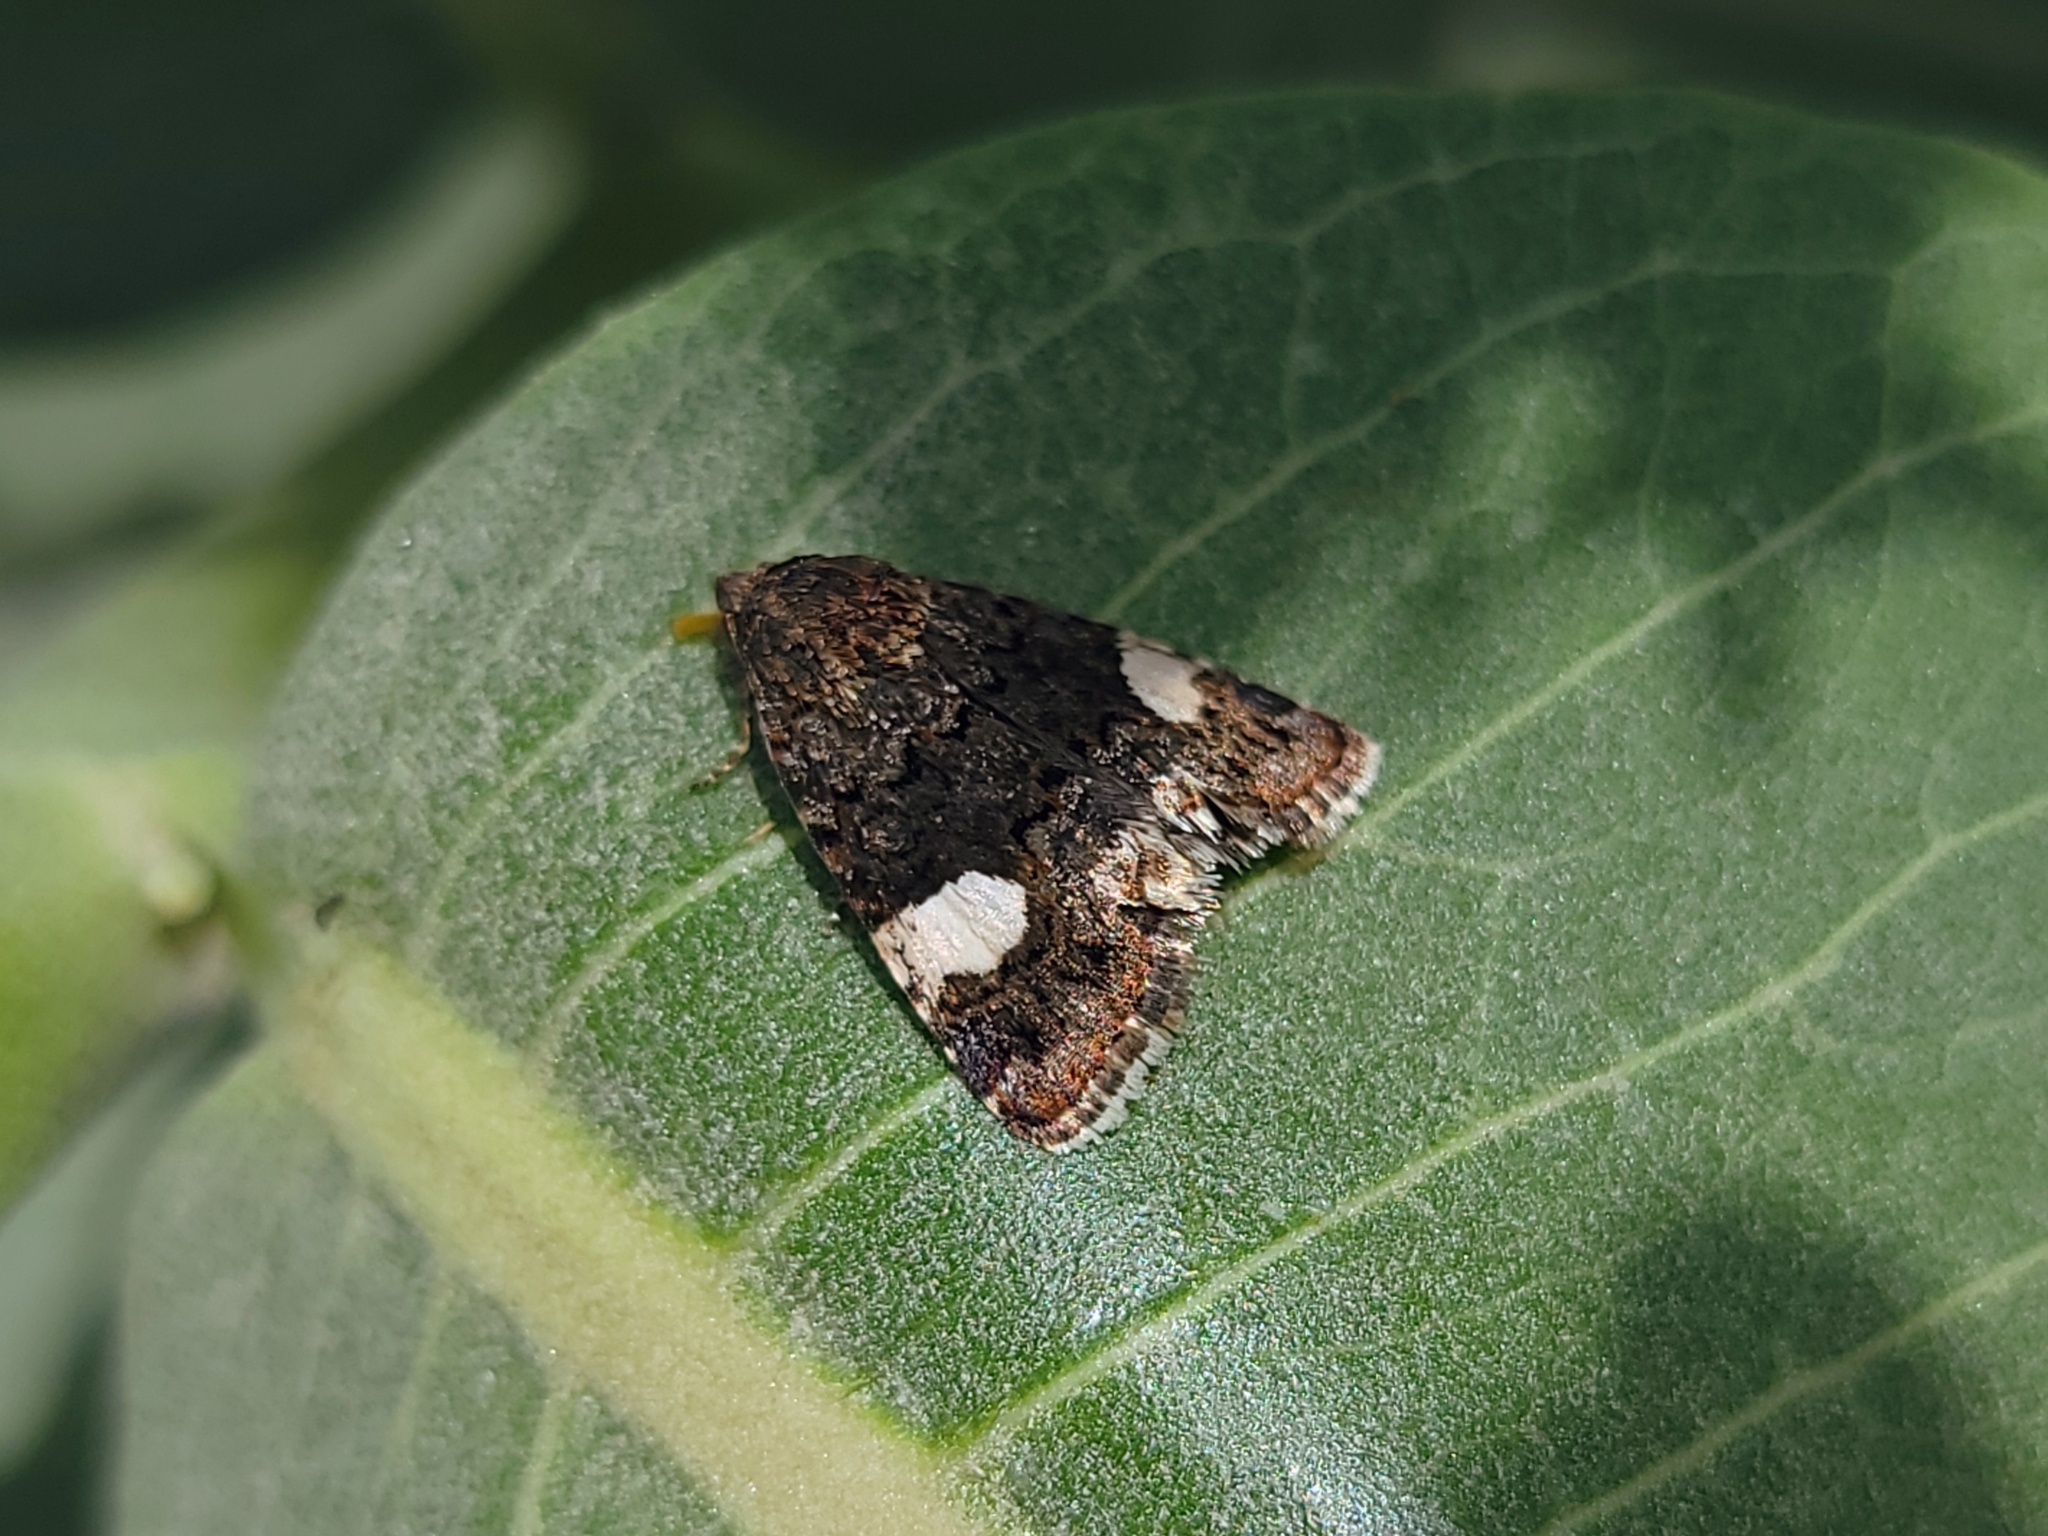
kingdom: Animalia
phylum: Arthropoda
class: Insecta
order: Lepidoptera
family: Erebidae
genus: Tyta
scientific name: Tyta luctuosa
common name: Four-spotted
